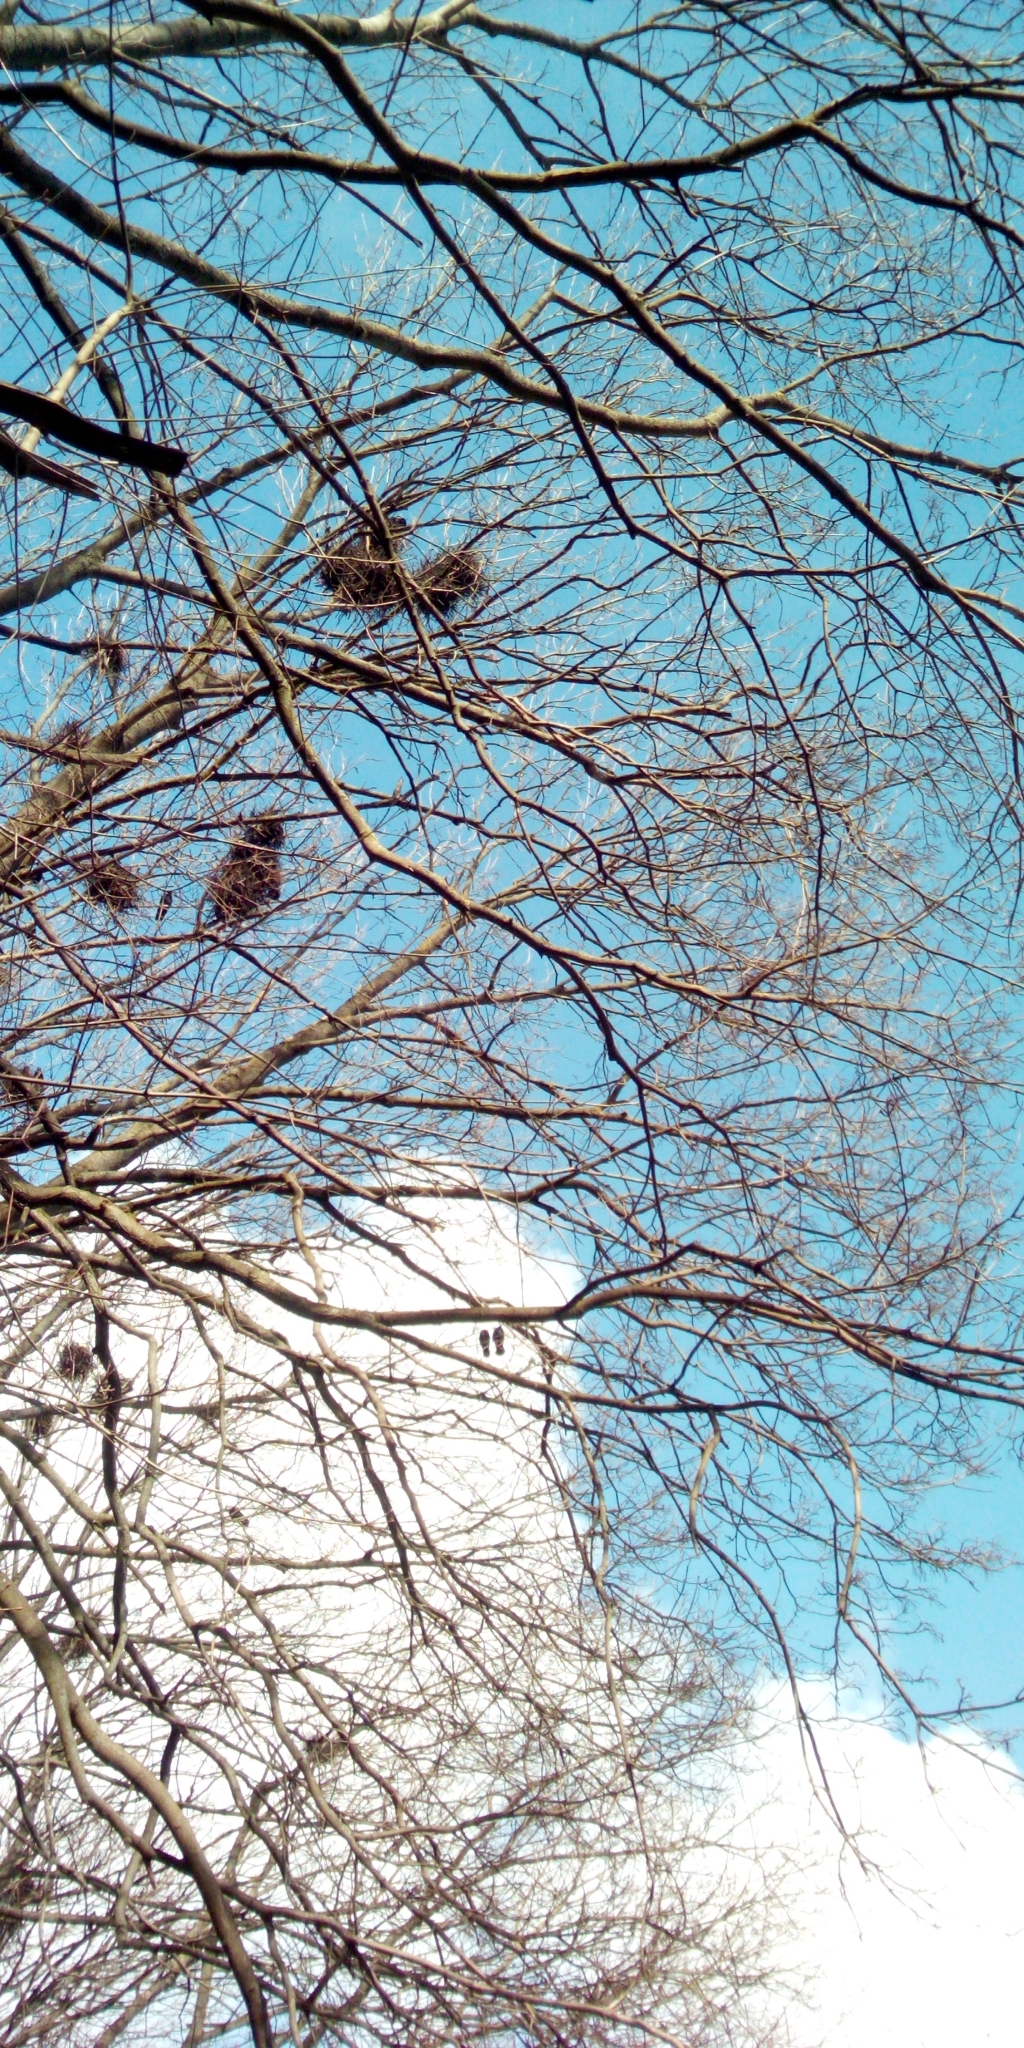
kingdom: Animalia
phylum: Chordata
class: Aves
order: Passeriformes
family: Corvidae
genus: Corvus
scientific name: Corvus frugilegus
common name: Rook
